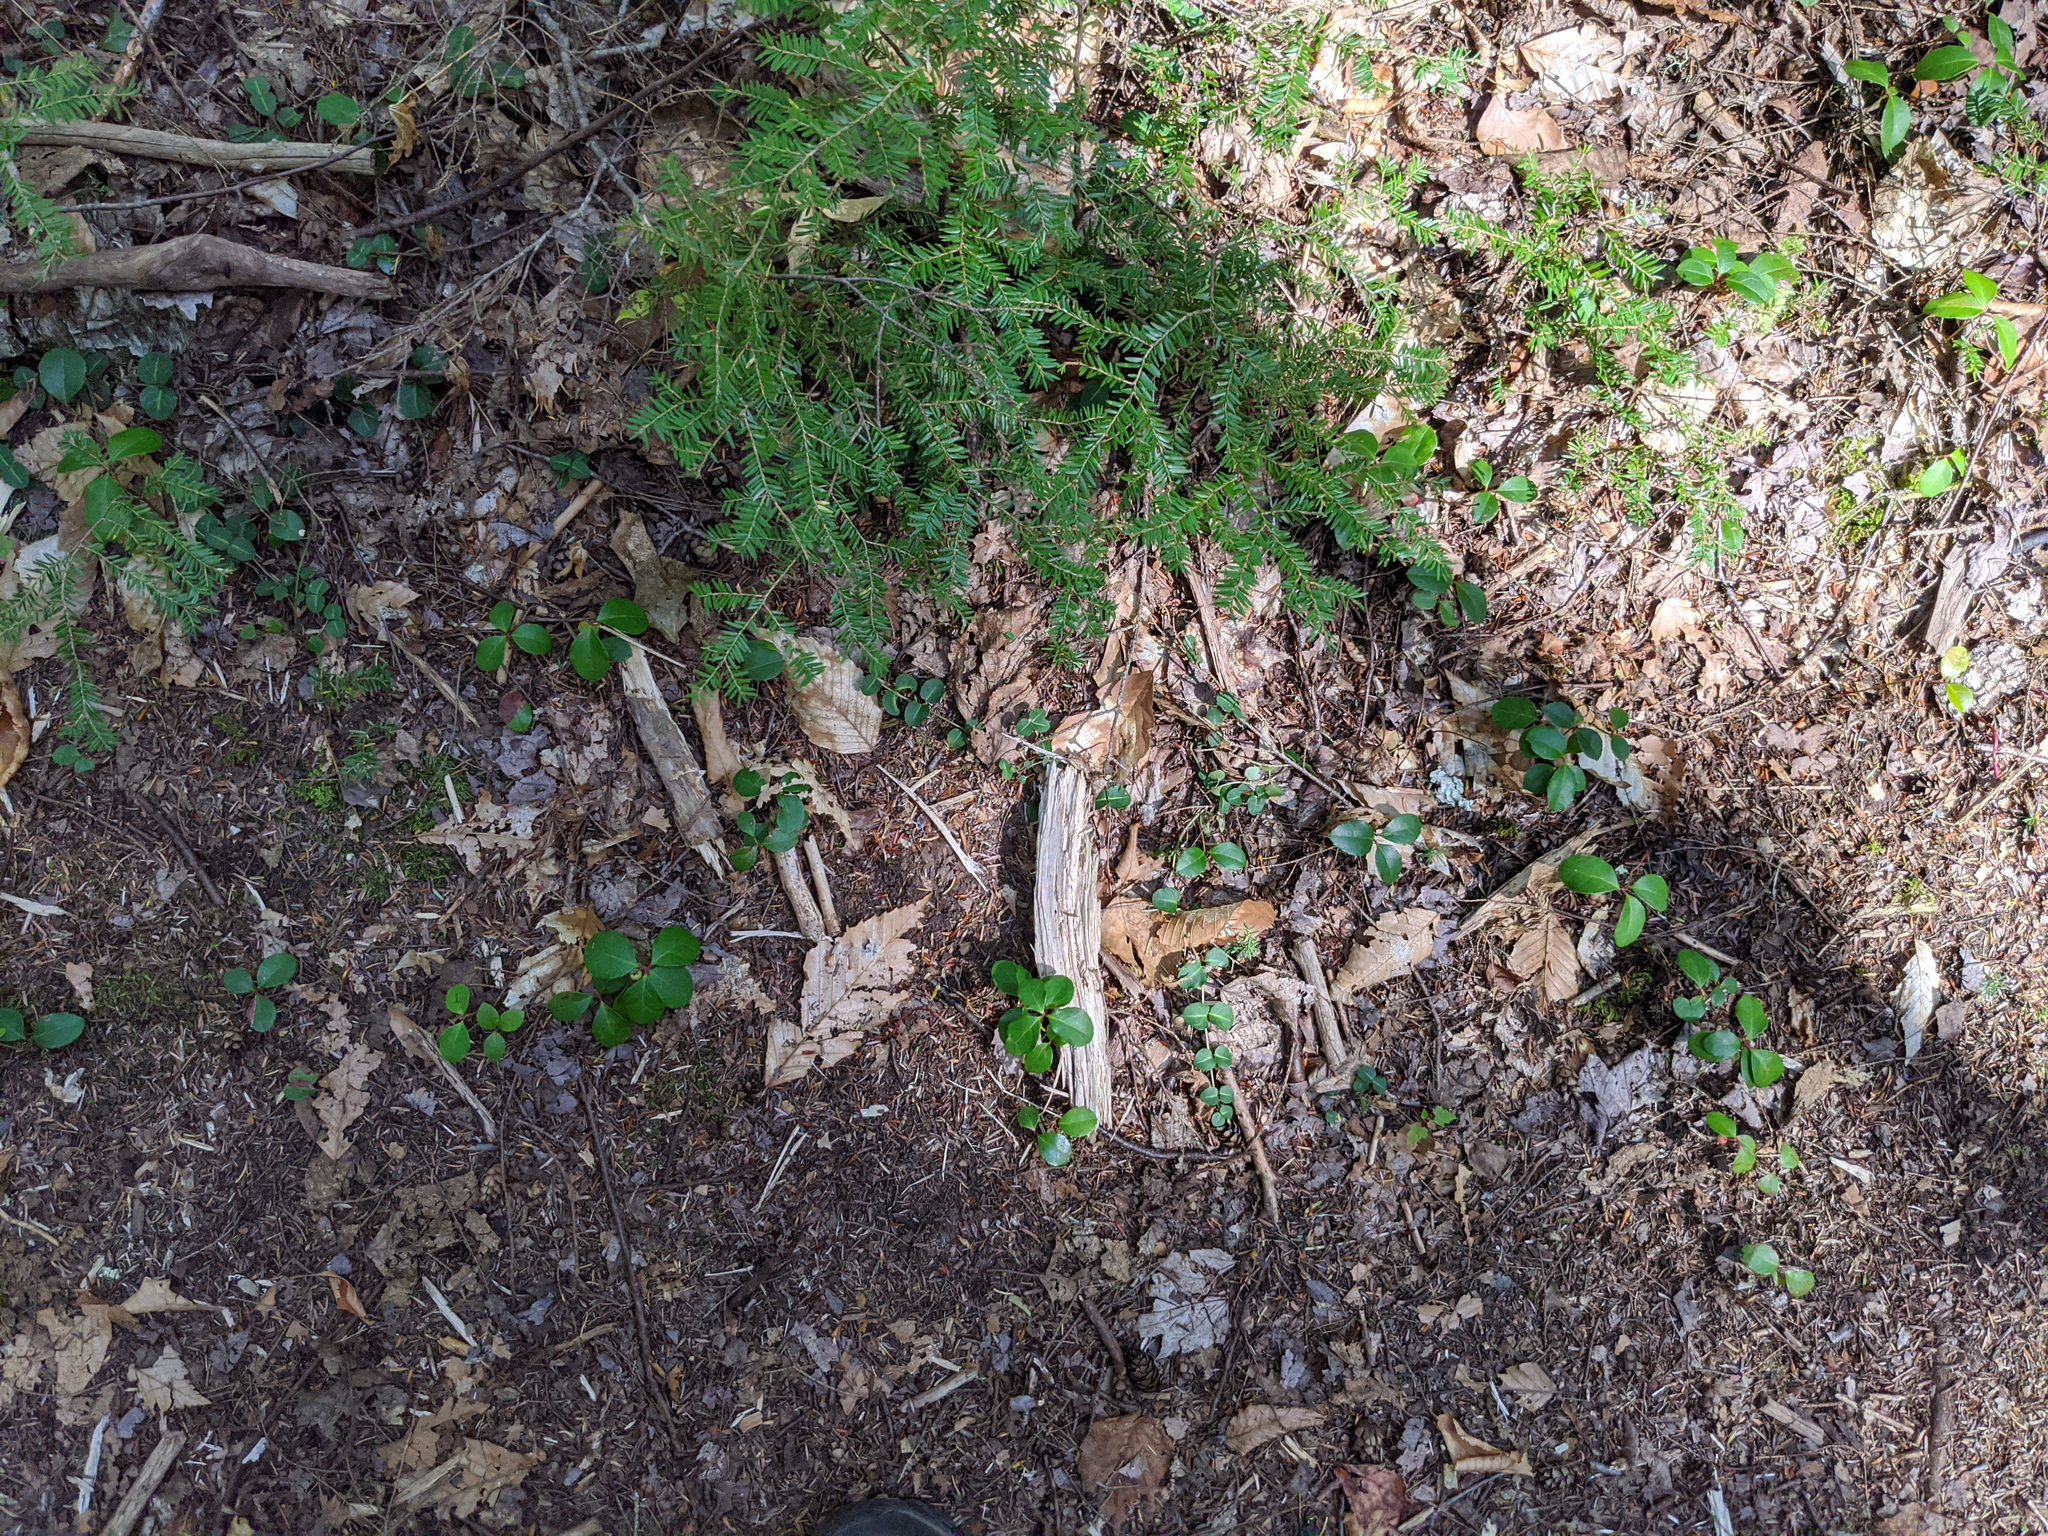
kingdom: Plantae
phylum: Tracheophyta
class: Pinopsida
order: Pinales
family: Pinaceae
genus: Tsuga
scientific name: Tsuga canadensis
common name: Eastern hemlock
